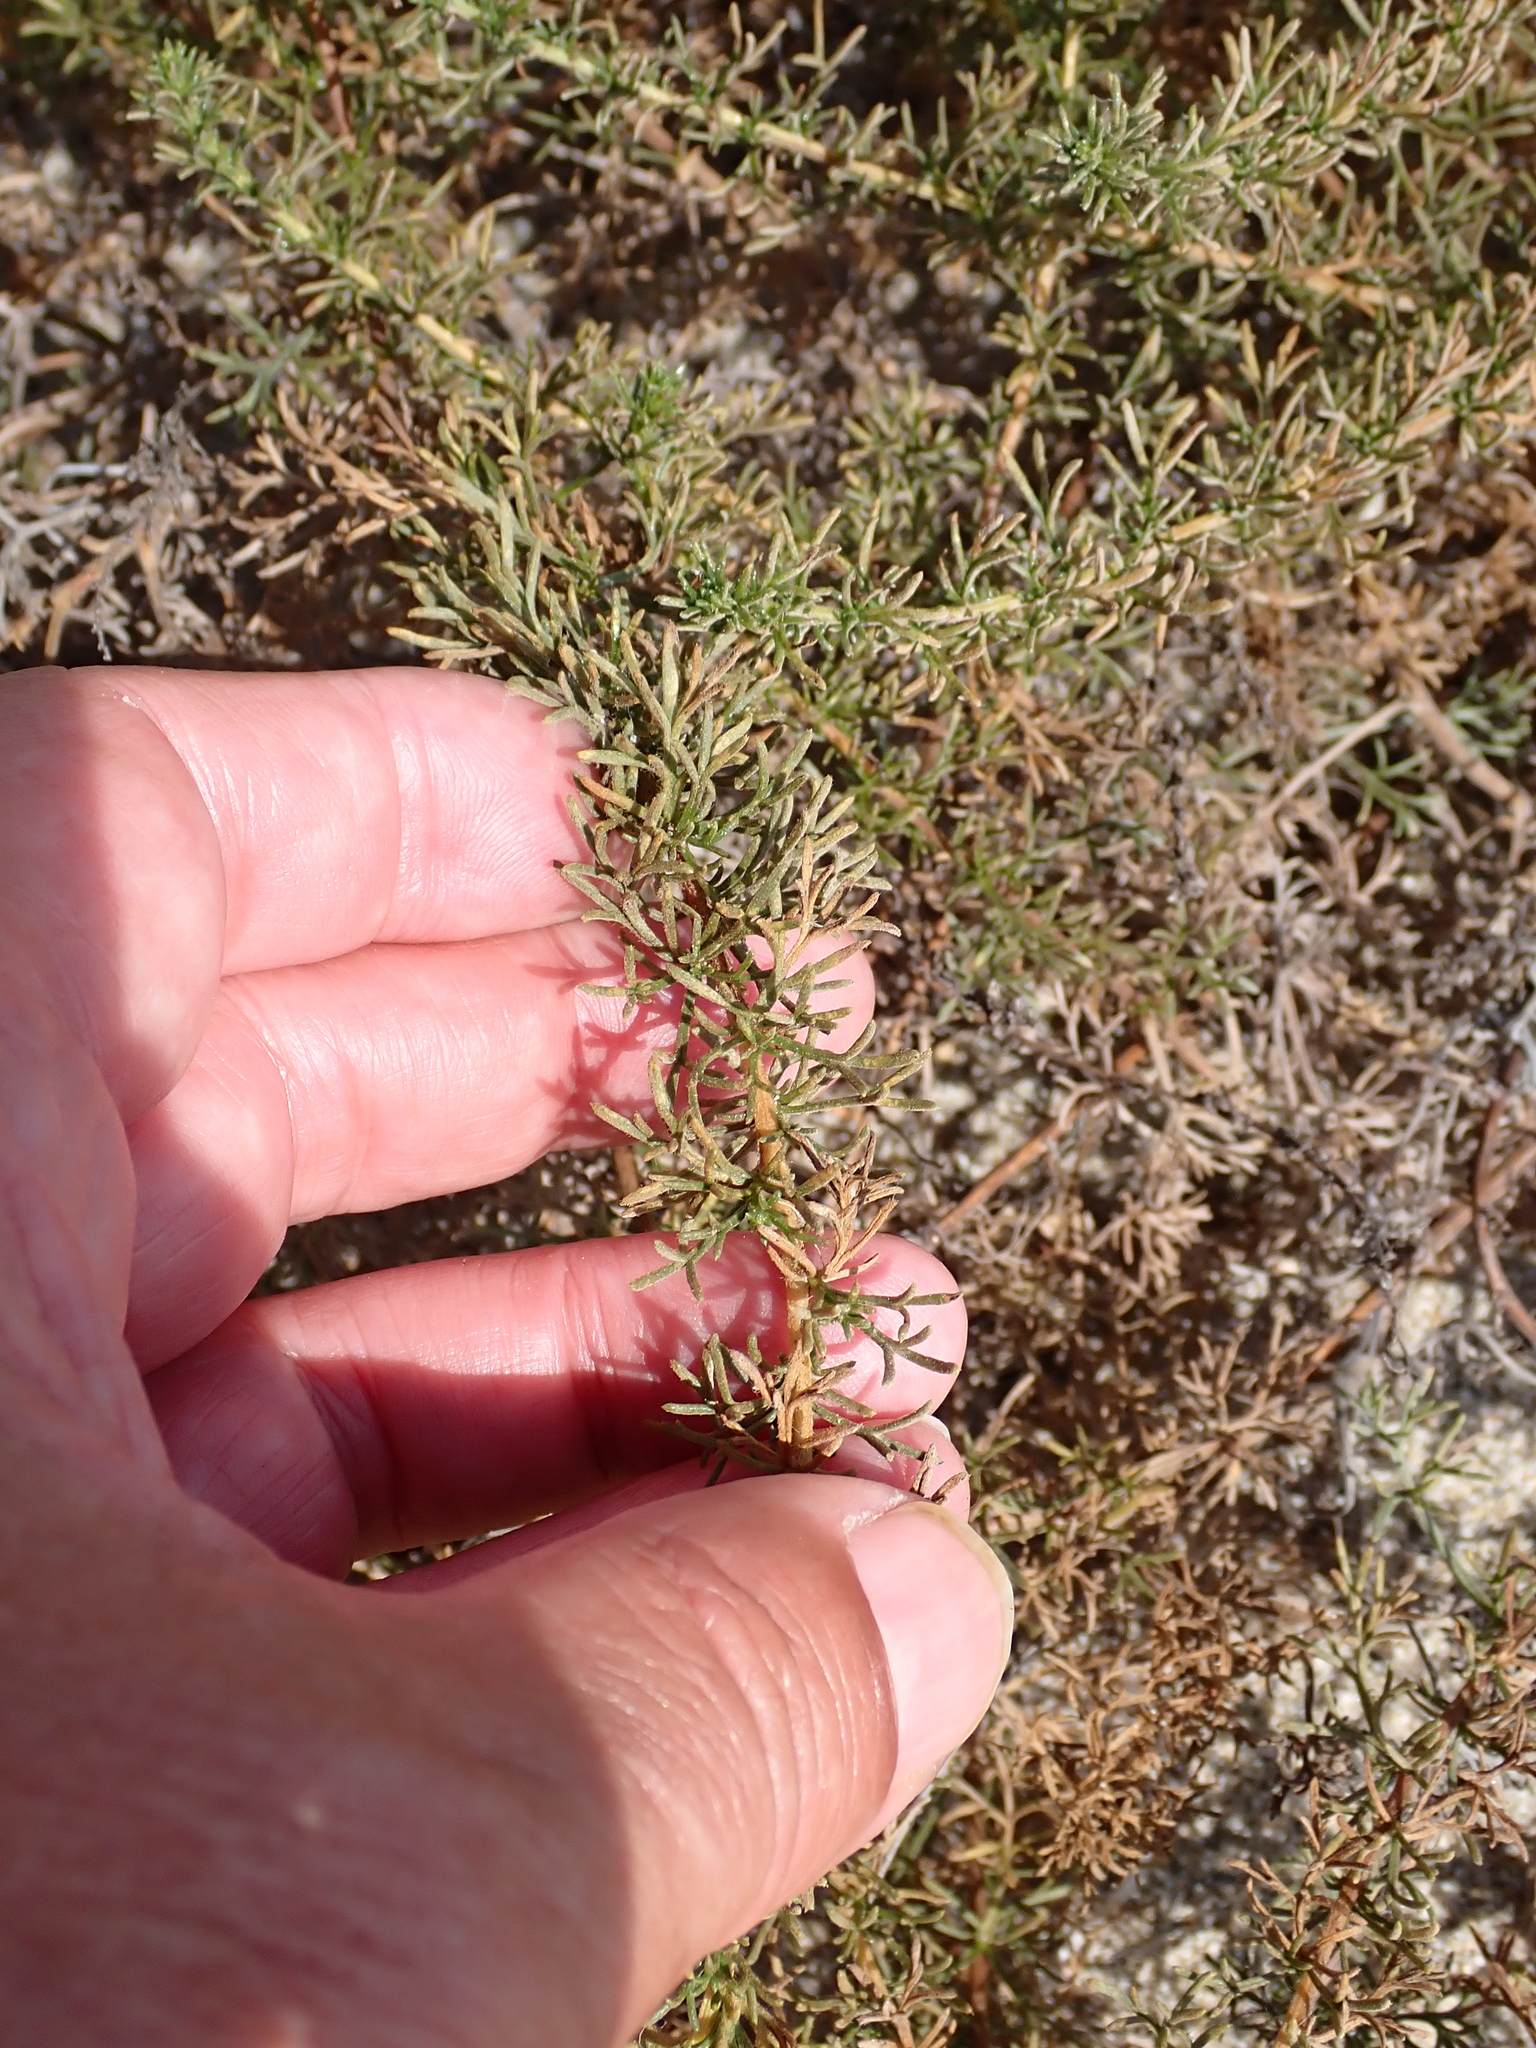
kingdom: Plantae
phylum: Tracheophyta
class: Magnoliopsida
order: Asterales
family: Asteraceae
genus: Artemisia
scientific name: Artemisia campestris
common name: Field wormwood
